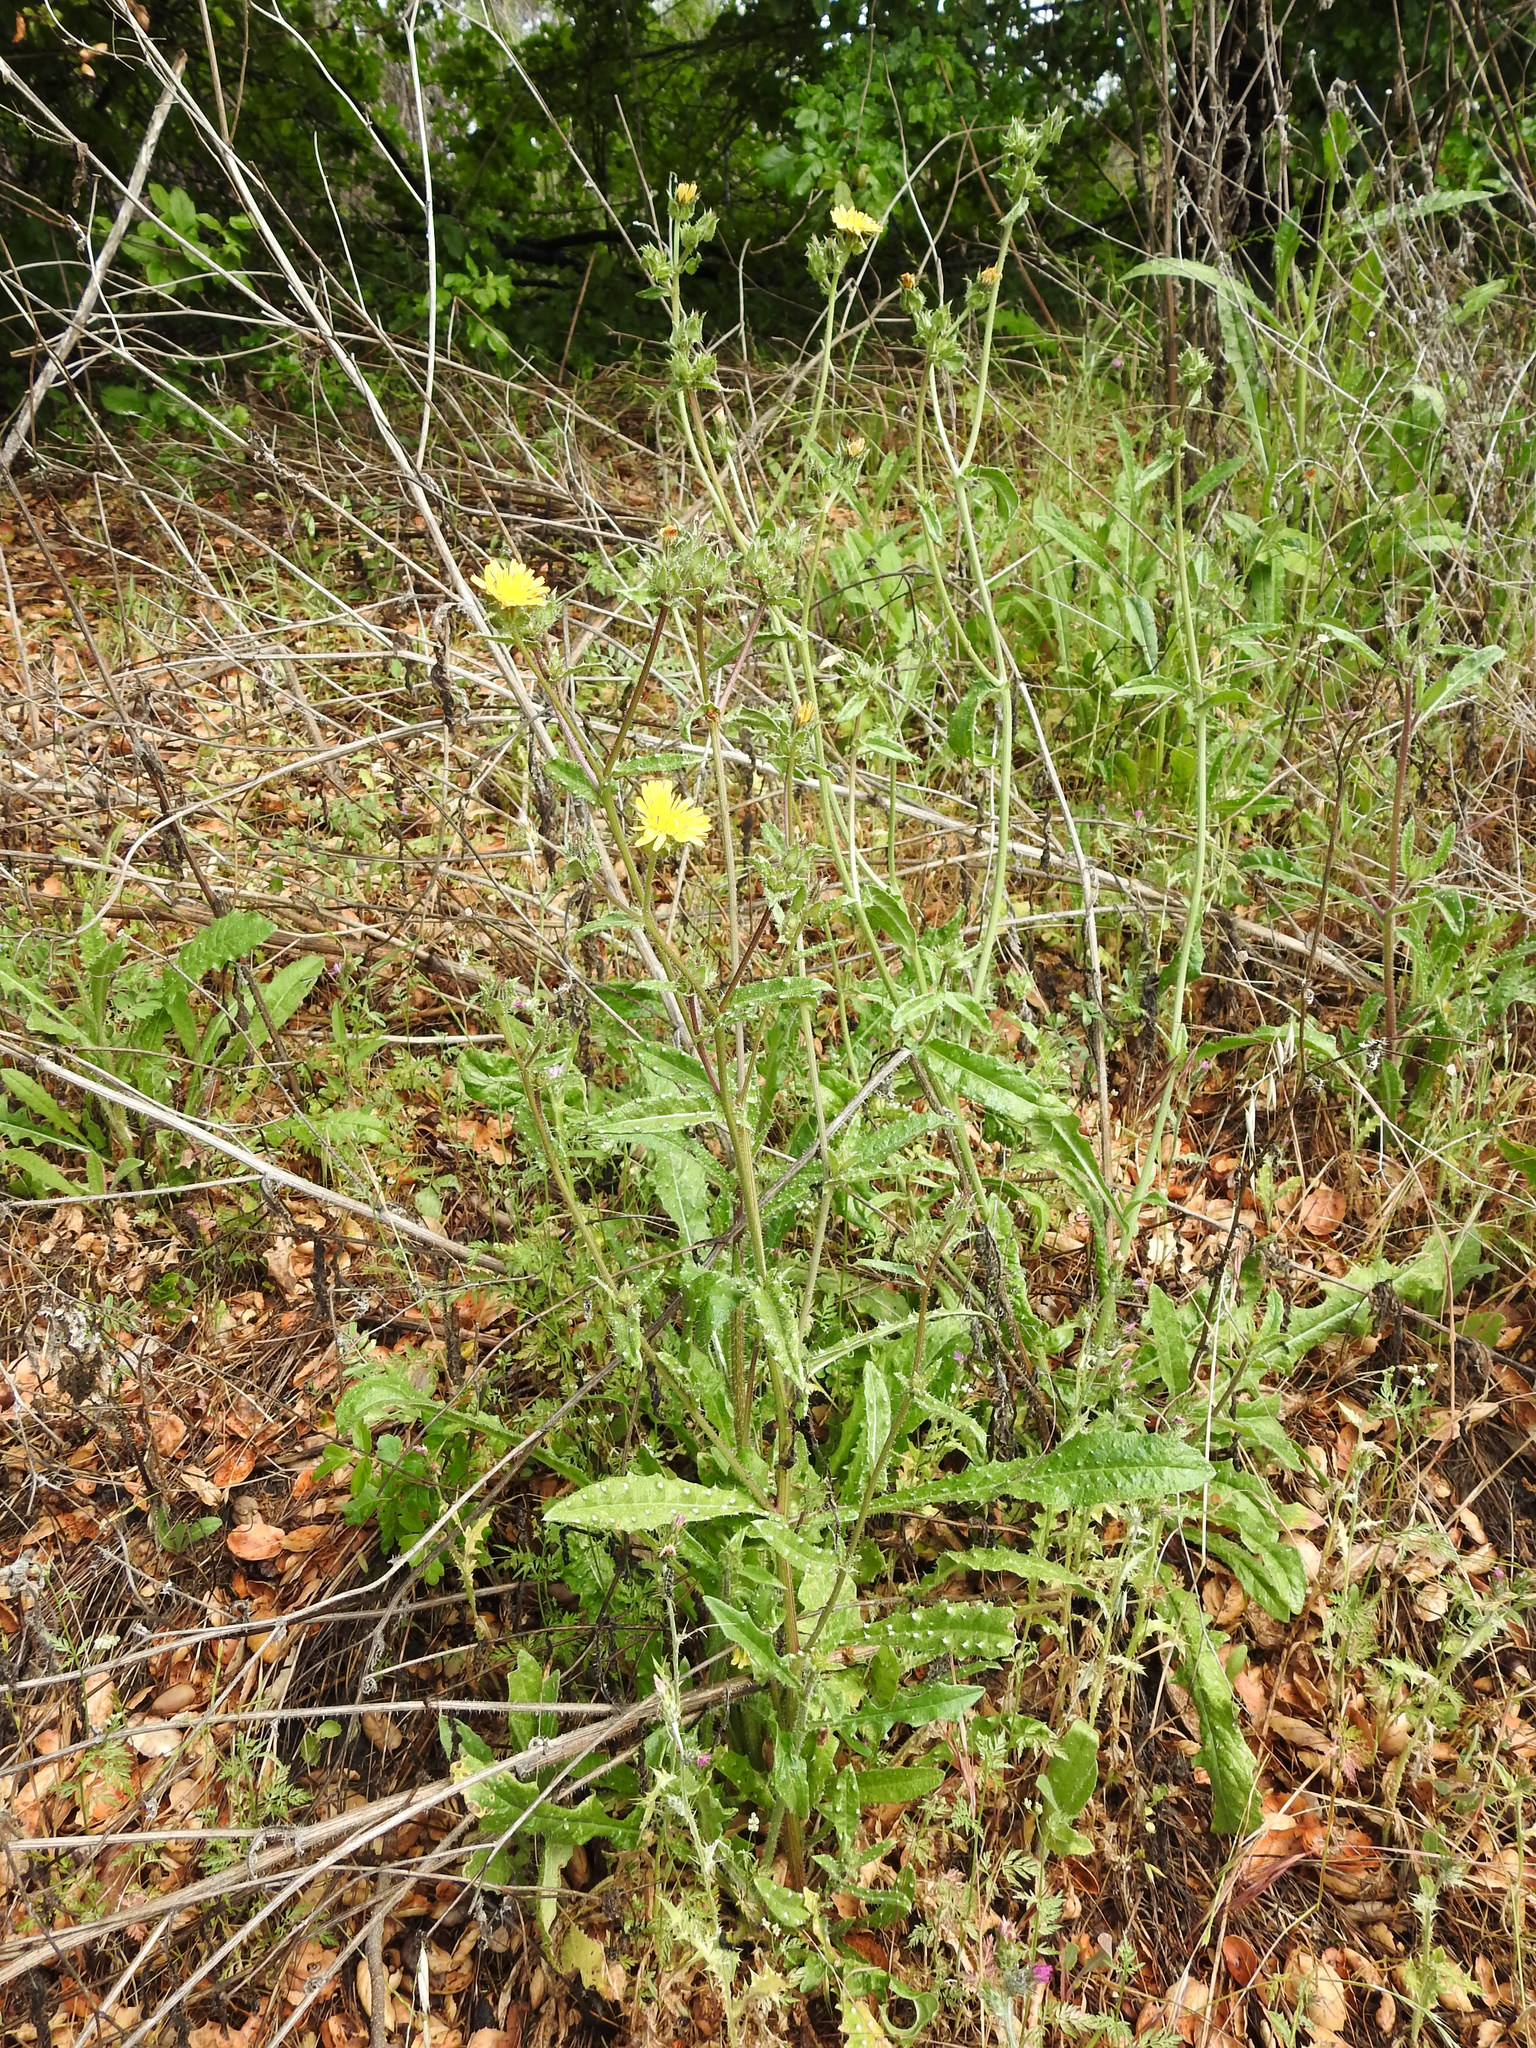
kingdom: Plantae
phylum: Tracheophyta
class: Magnoliopsida
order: Asterales
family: Asteraceae
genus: Helminthotheca
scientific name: Helminthotheca echioides
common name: Ox-tongue
